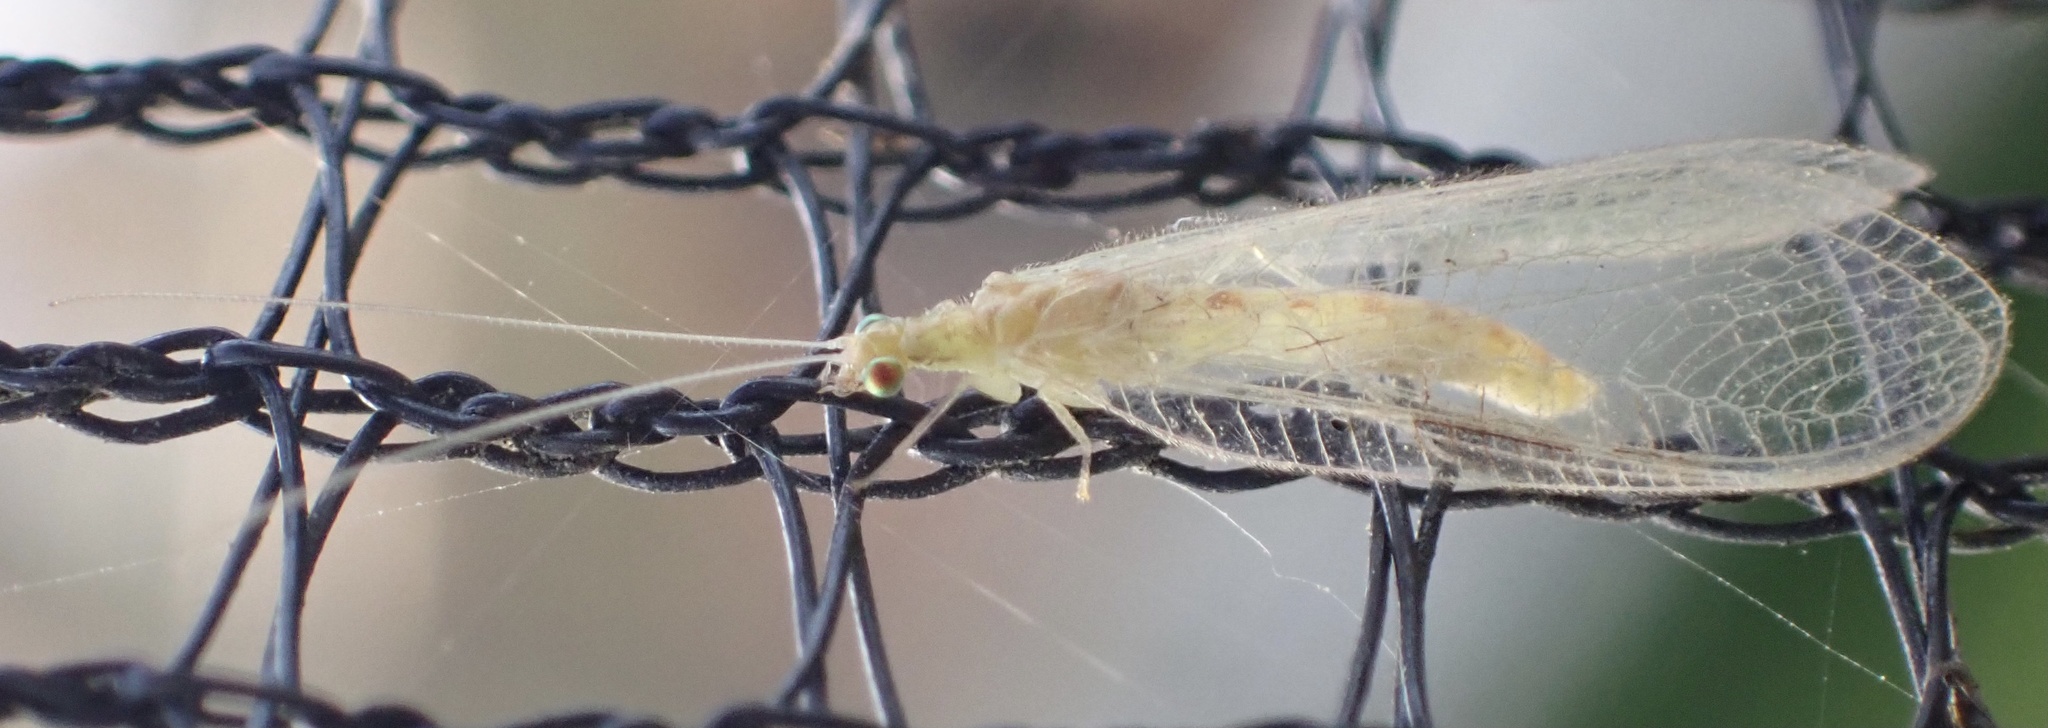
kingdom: Animalia
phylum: Arthropoda
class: Insecta
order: Neuroptera
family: Chrysopidae
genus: Chrysoperla
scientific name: Chrysoperla
